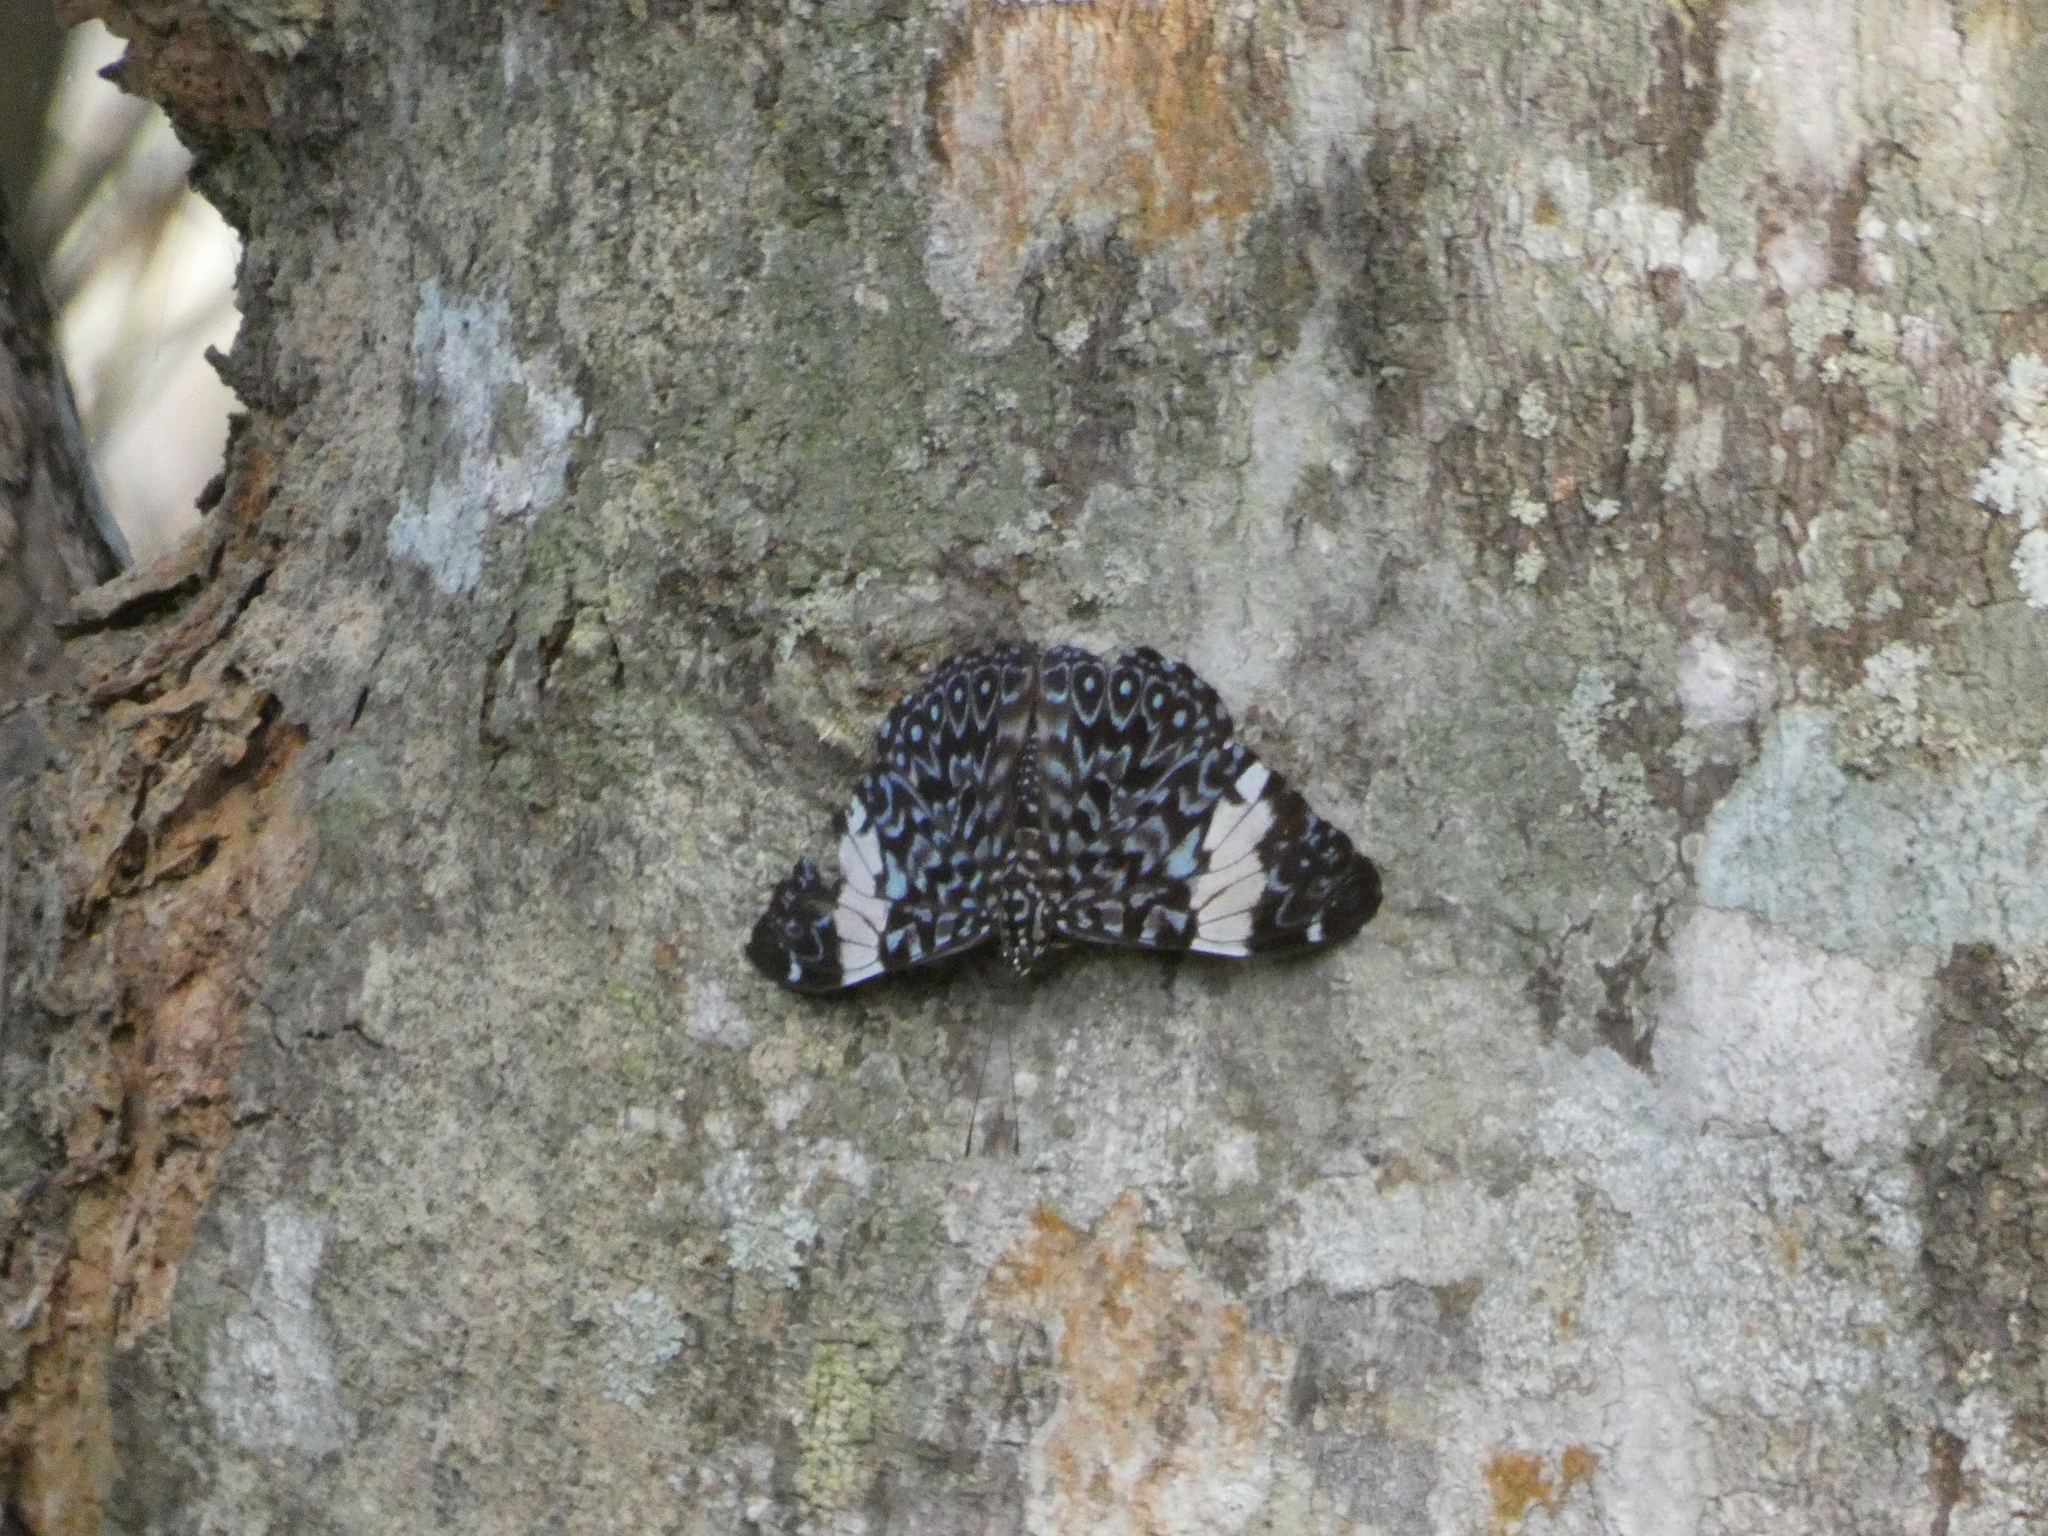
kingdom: Animalia
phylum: Arthropoda
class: Insecta
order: Lepidoptera
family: Nymphalidae
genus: Hamadryas
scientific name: Hamadryas amphinome
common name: Red cracker
